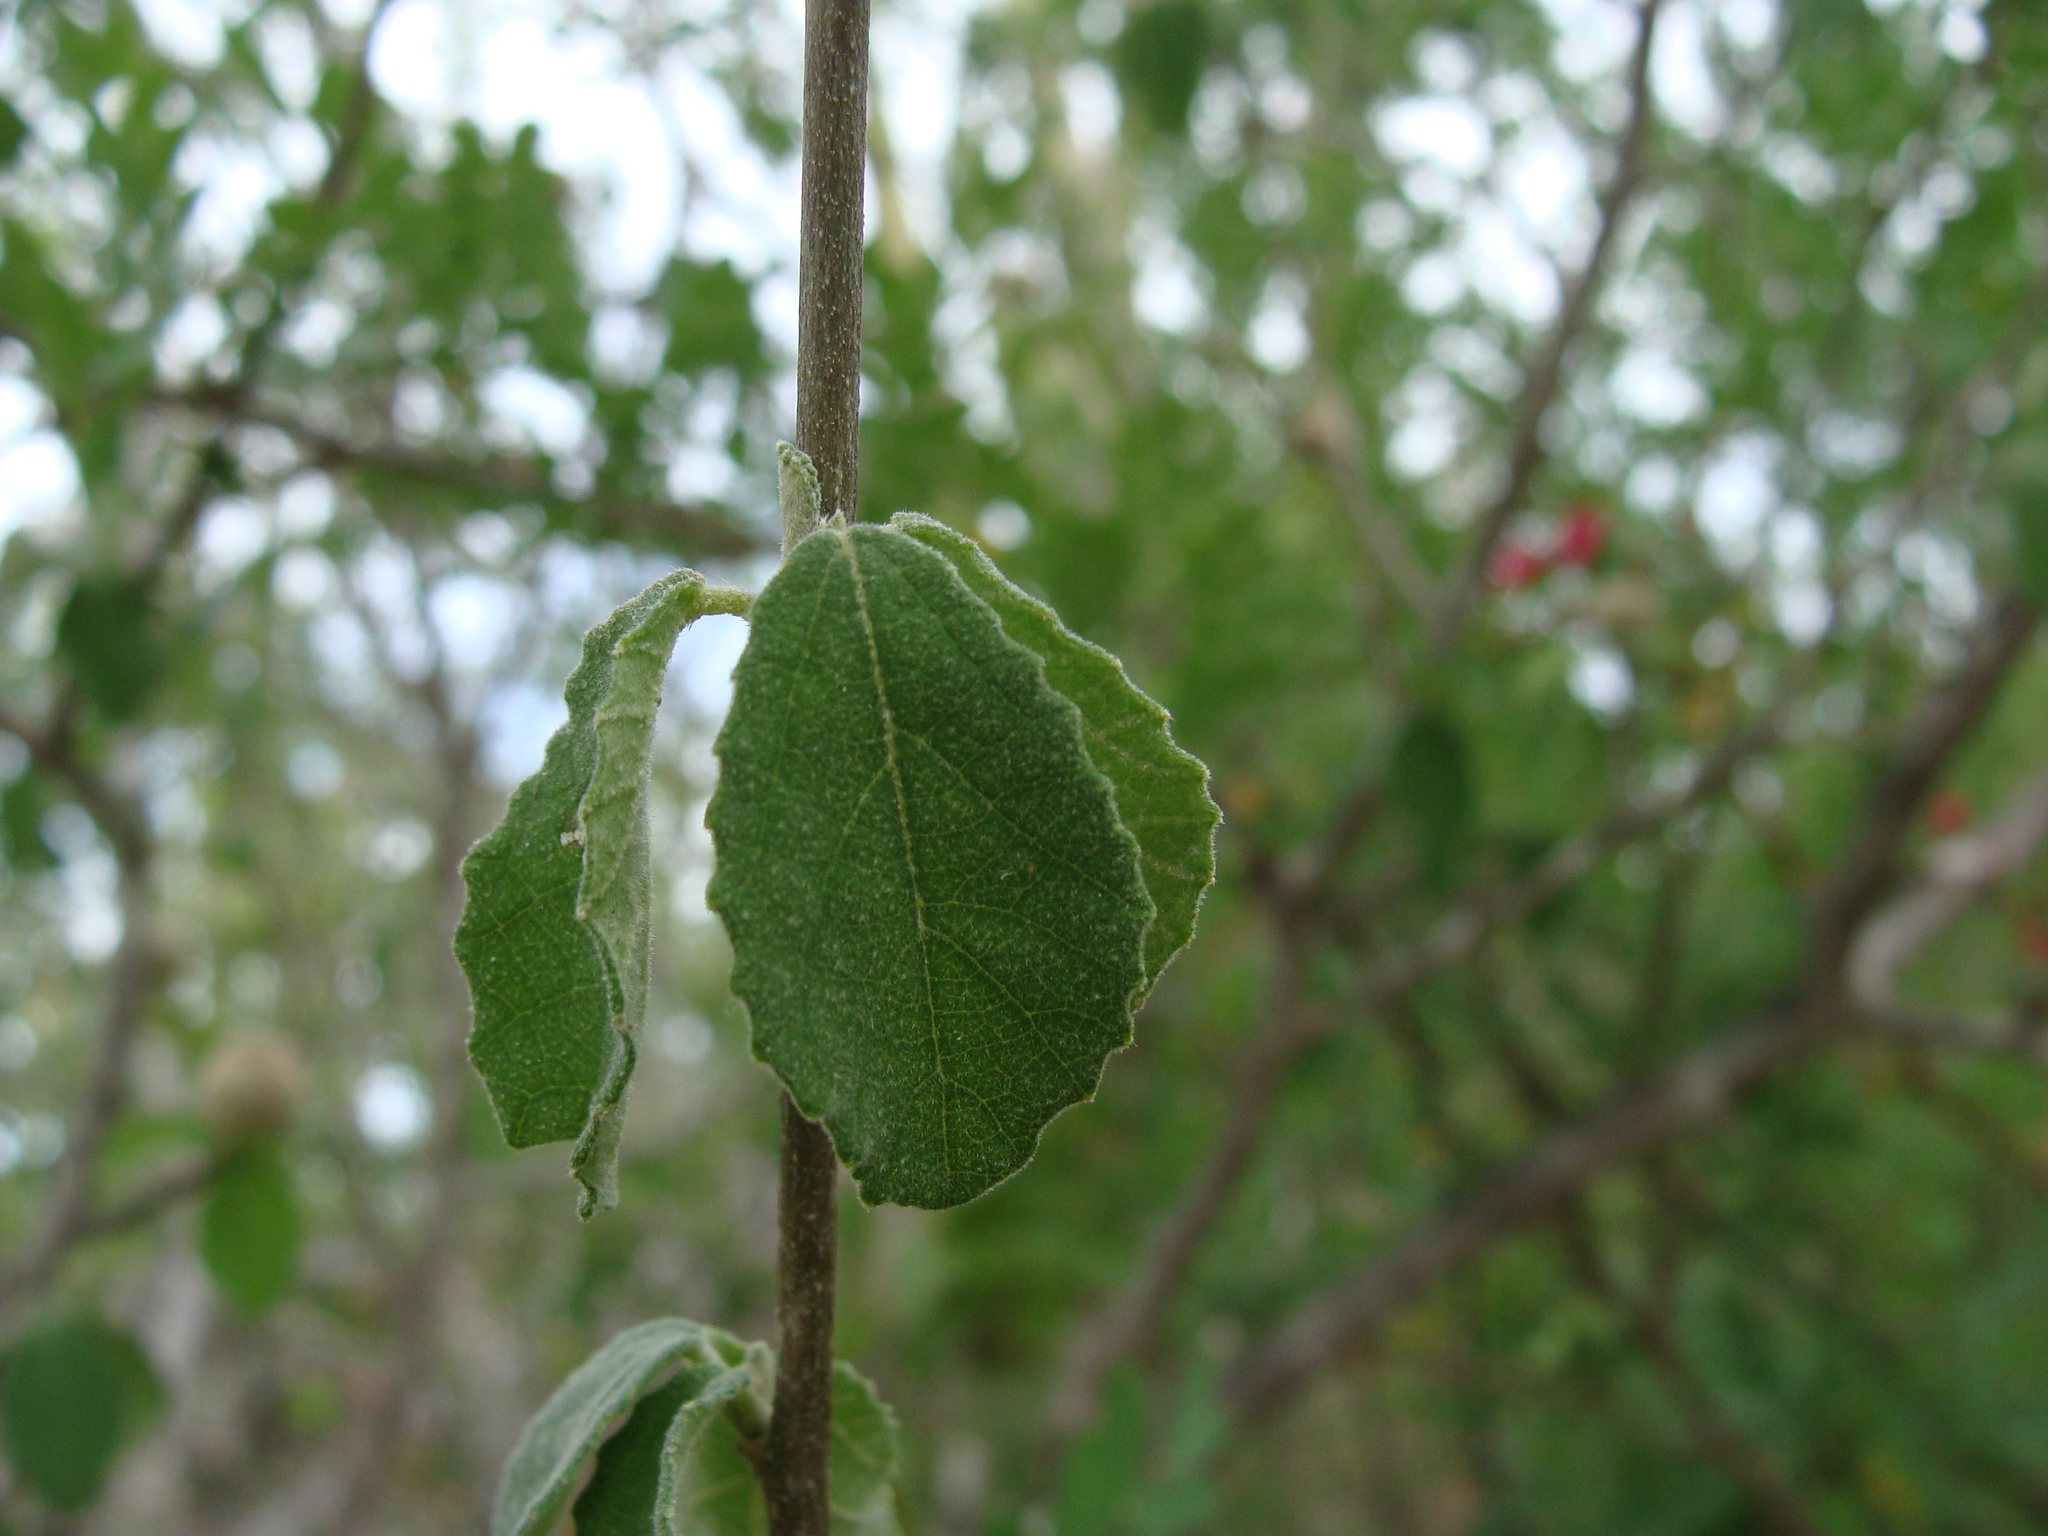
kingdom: Plantae
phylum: Tracheophyta
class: Magnoliopsida
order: Malpighiales
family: Euphorbiaceae
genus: Bernardia
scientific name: Bernardia viridis
